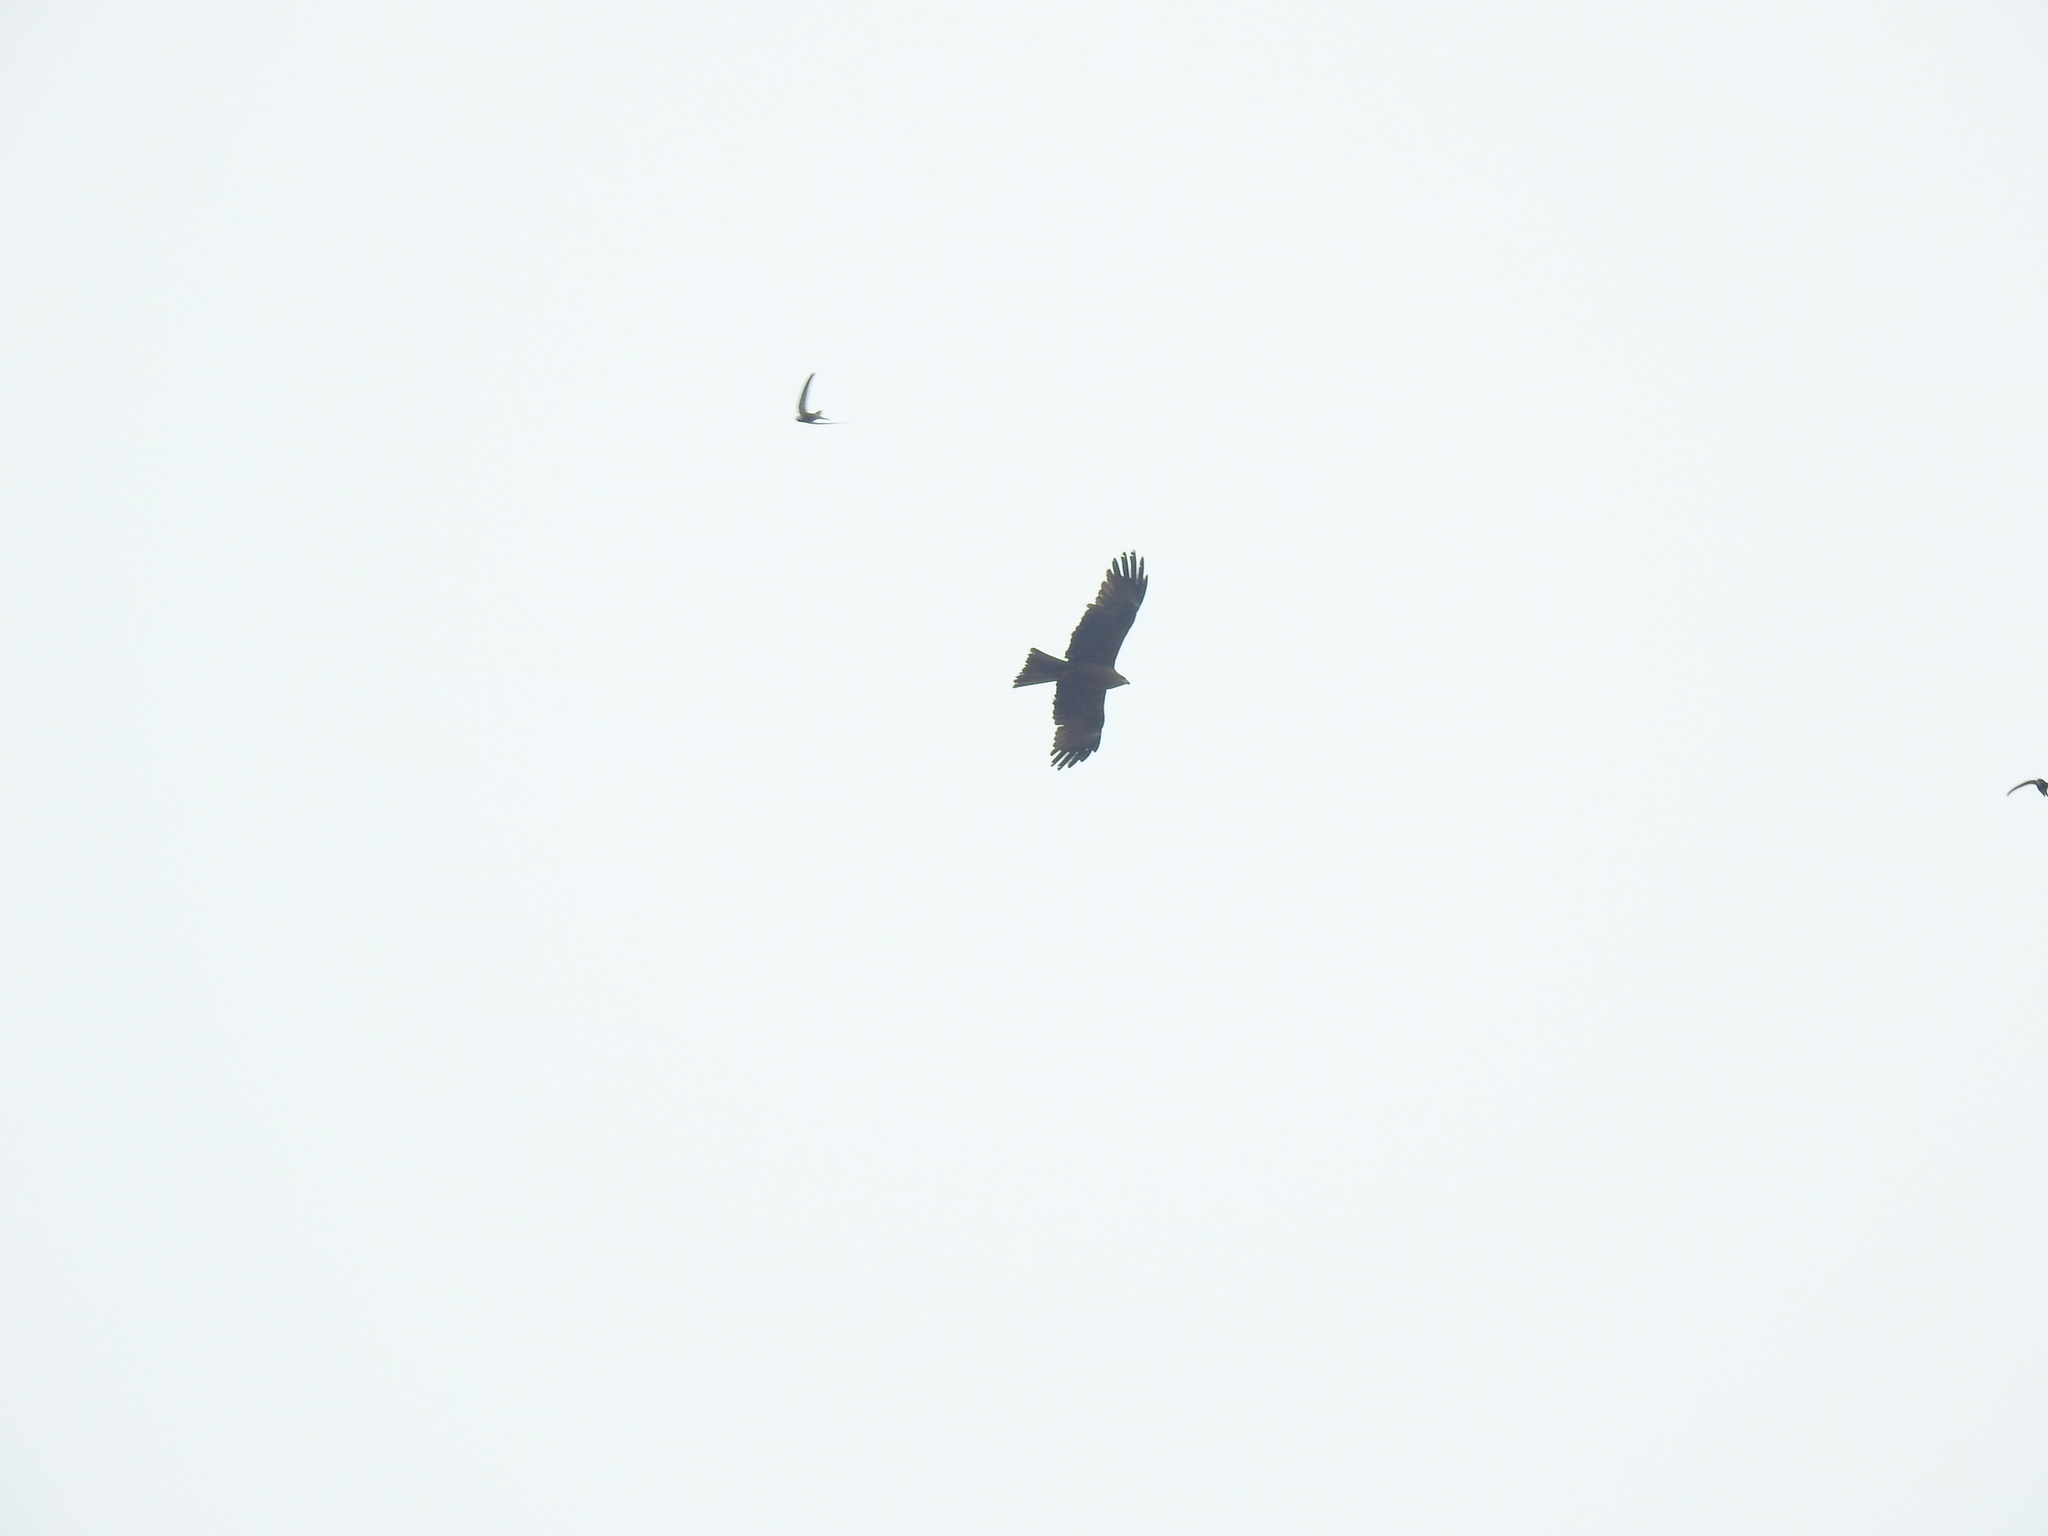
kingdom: Animalia
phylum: Chordata
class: Aves
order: Accipitriformes
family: Accipitridae
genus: Milvus
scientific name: Milvus migrans
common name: Black kite
